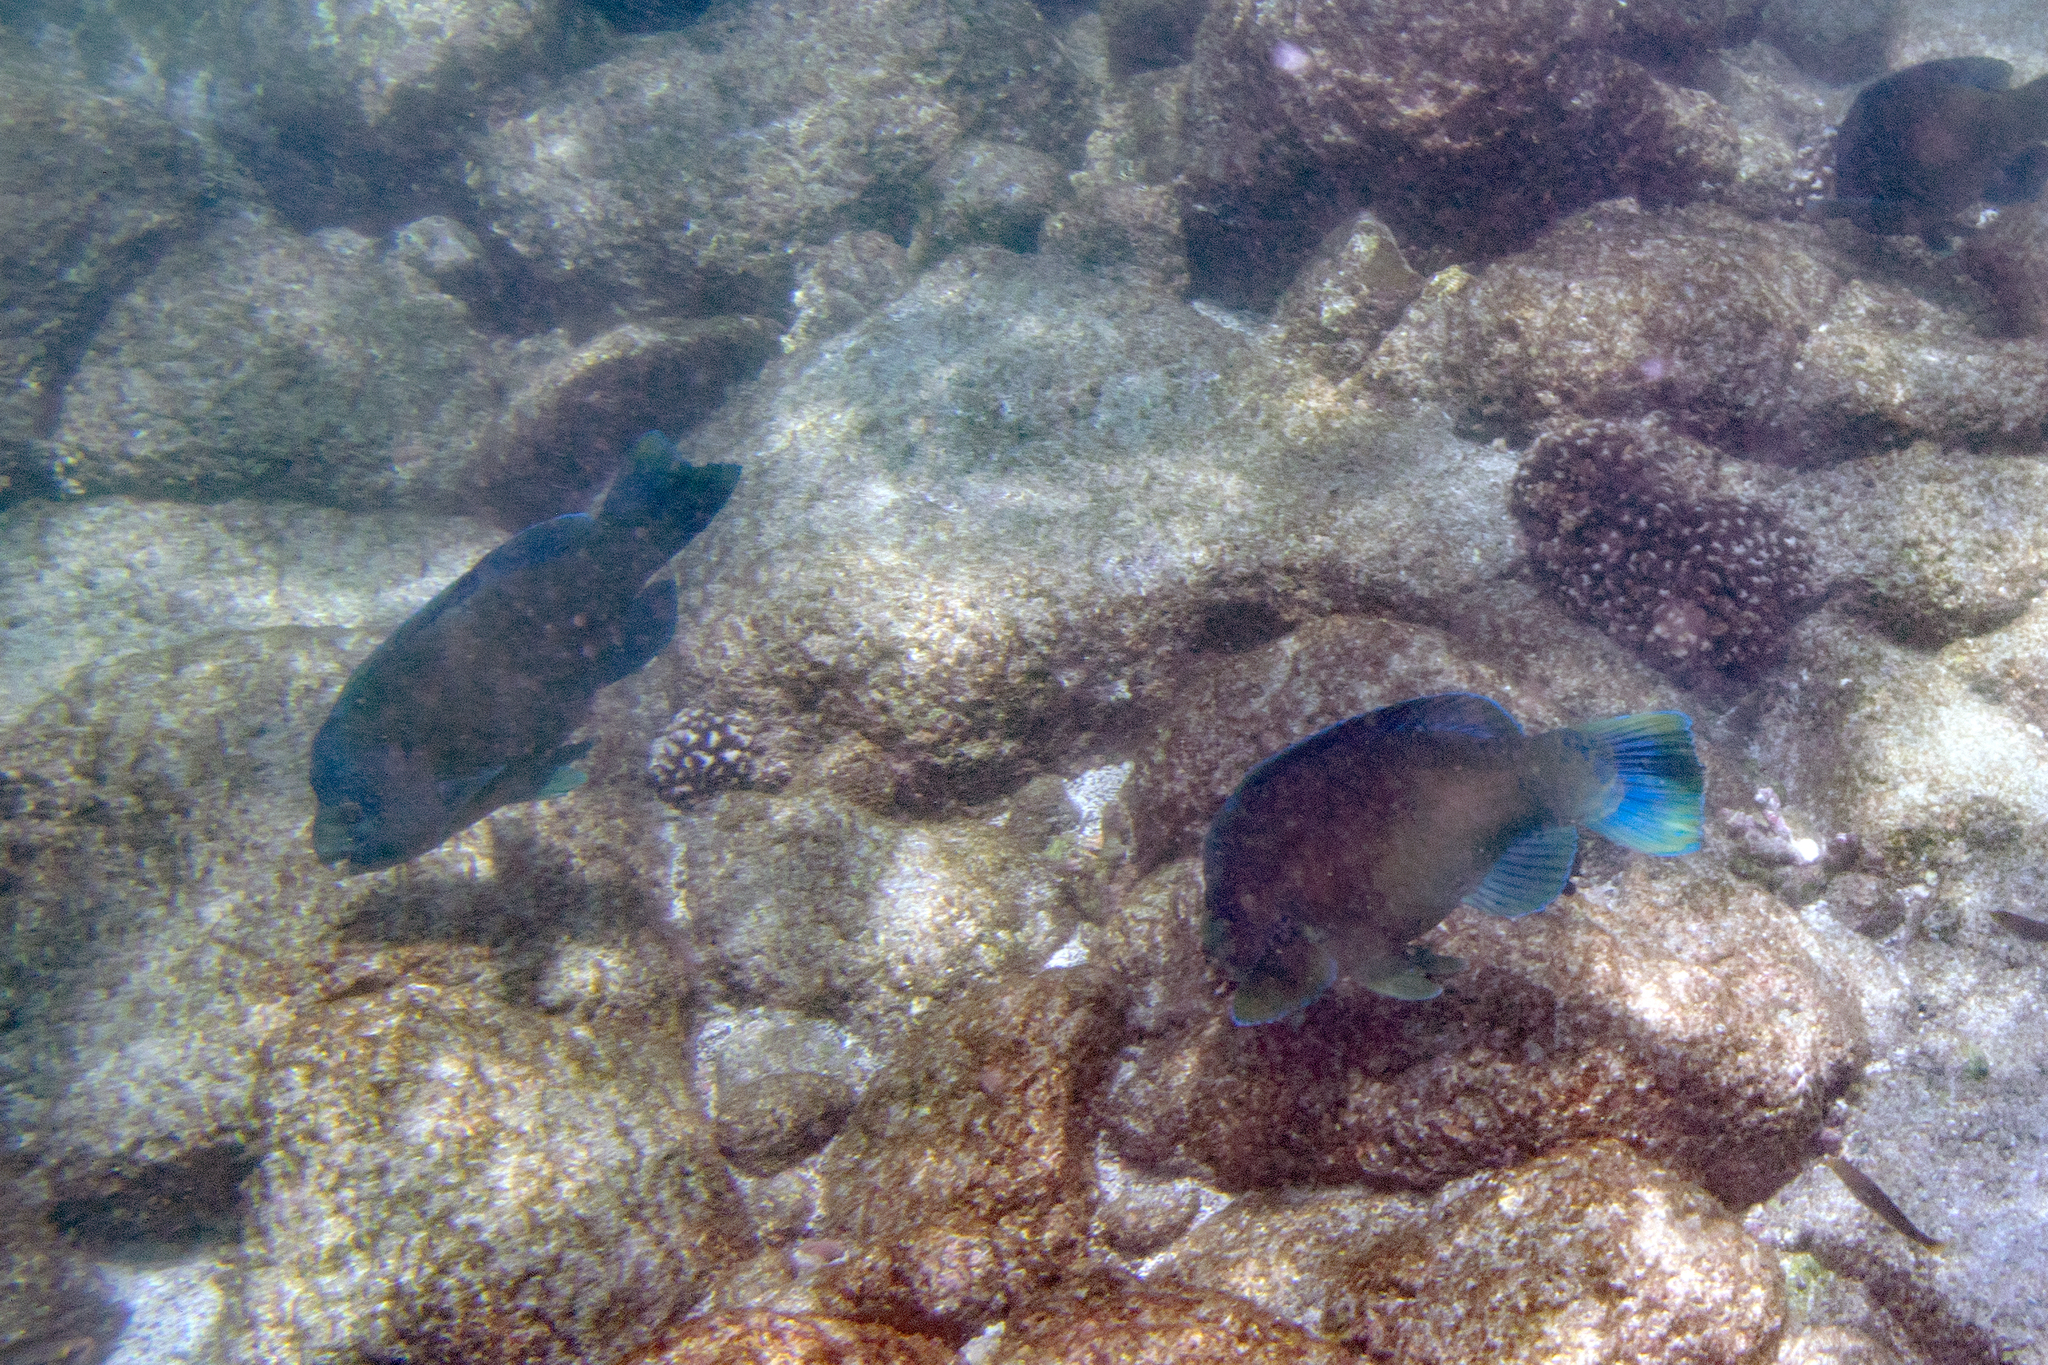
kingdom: Animalia
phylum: Chordata
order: Perciformes
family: Scaridae
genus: Scarus
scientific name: Scarus perrico
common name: Bumphead parrotfish
